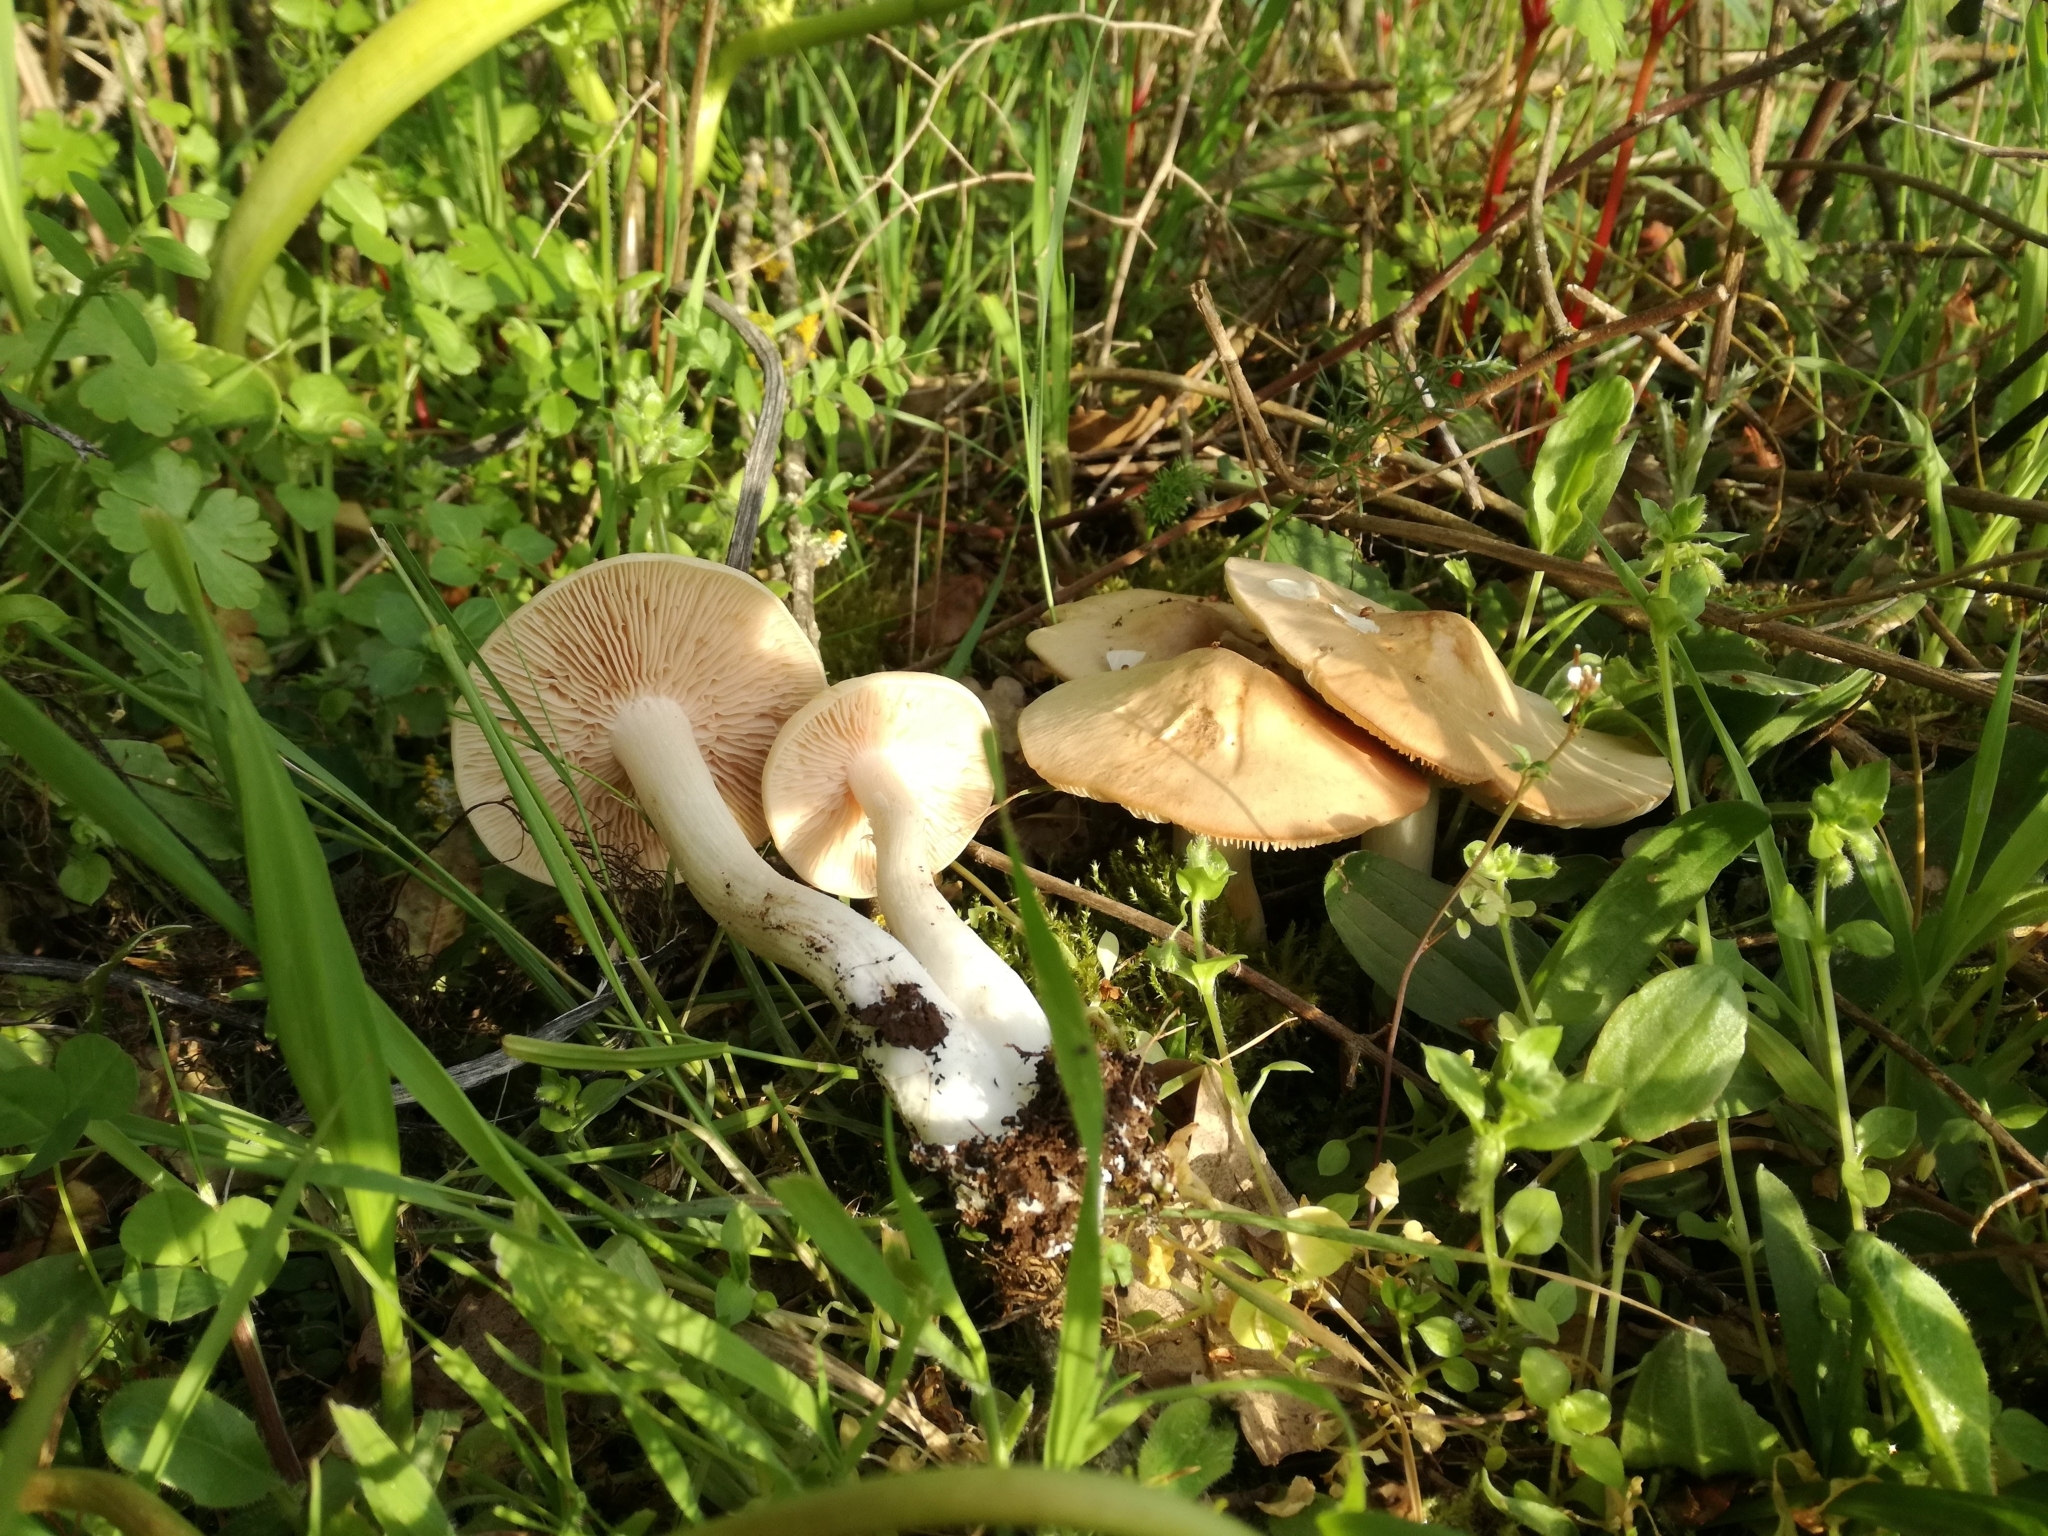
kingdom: Fungi
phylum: Basidiomycota
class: Agaricomycetes
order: Agaricales
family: Entolomataceae
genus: Entoloma
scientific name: Entoloma clypeatum
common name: Shield pinkgill
